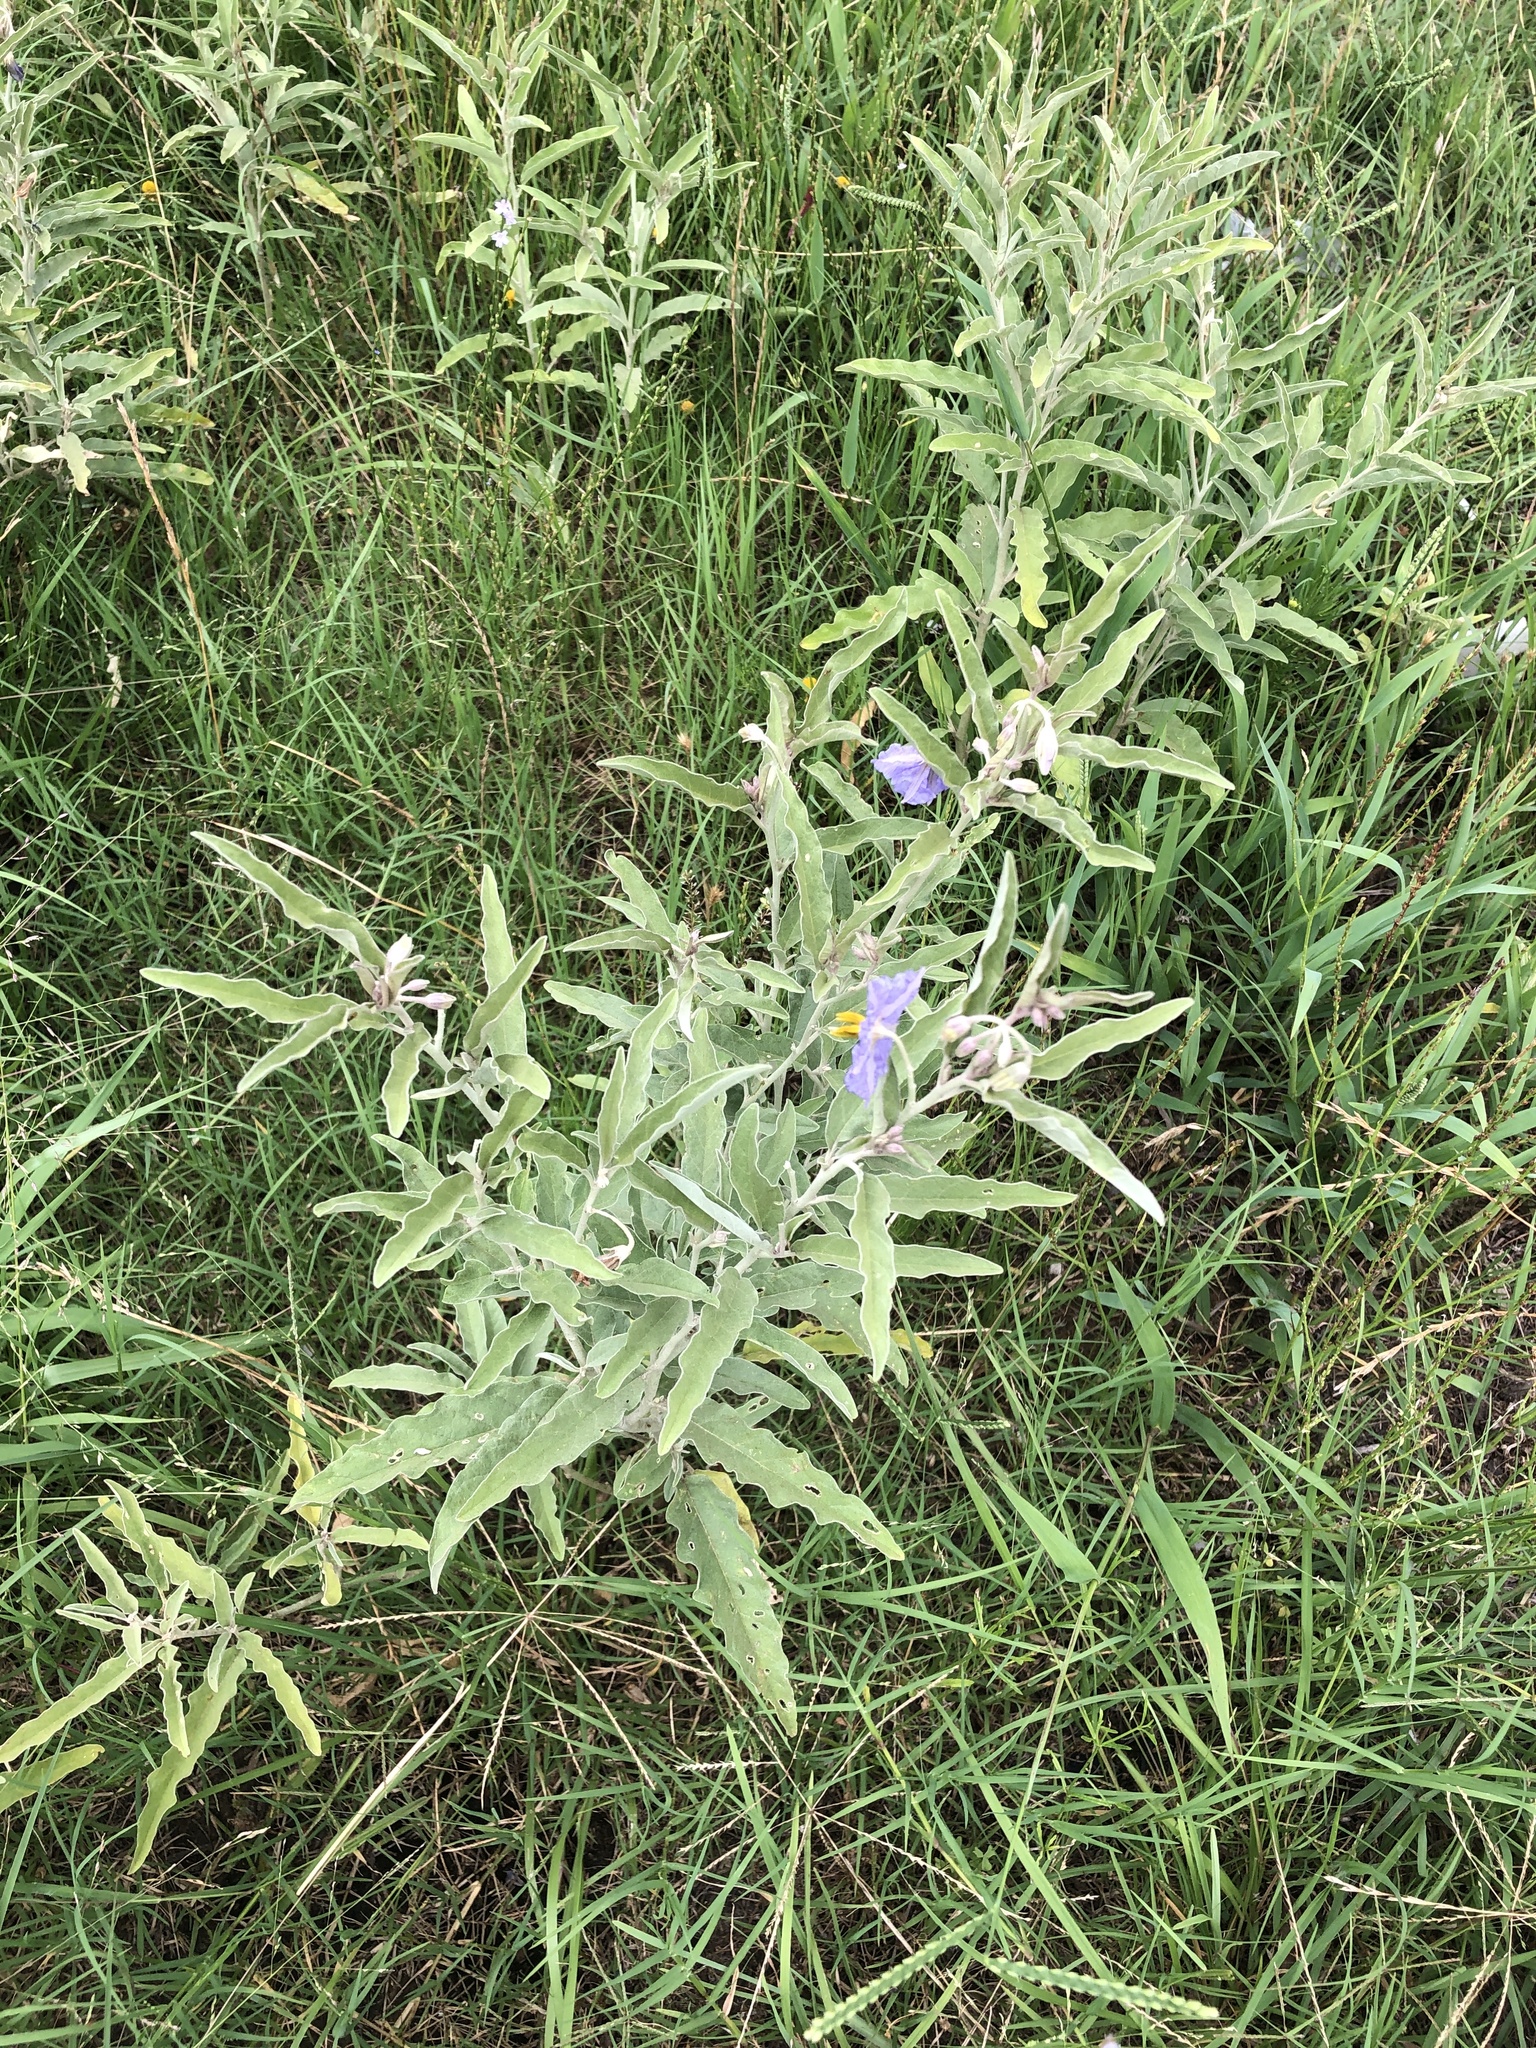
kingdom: Plantae
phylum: Tracheophyta
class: Magnoliopsida
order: Solanales
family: Solanaceae
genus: Solanum
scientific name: Solanum elaeagnifolium
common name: Silverleaf nightshade
